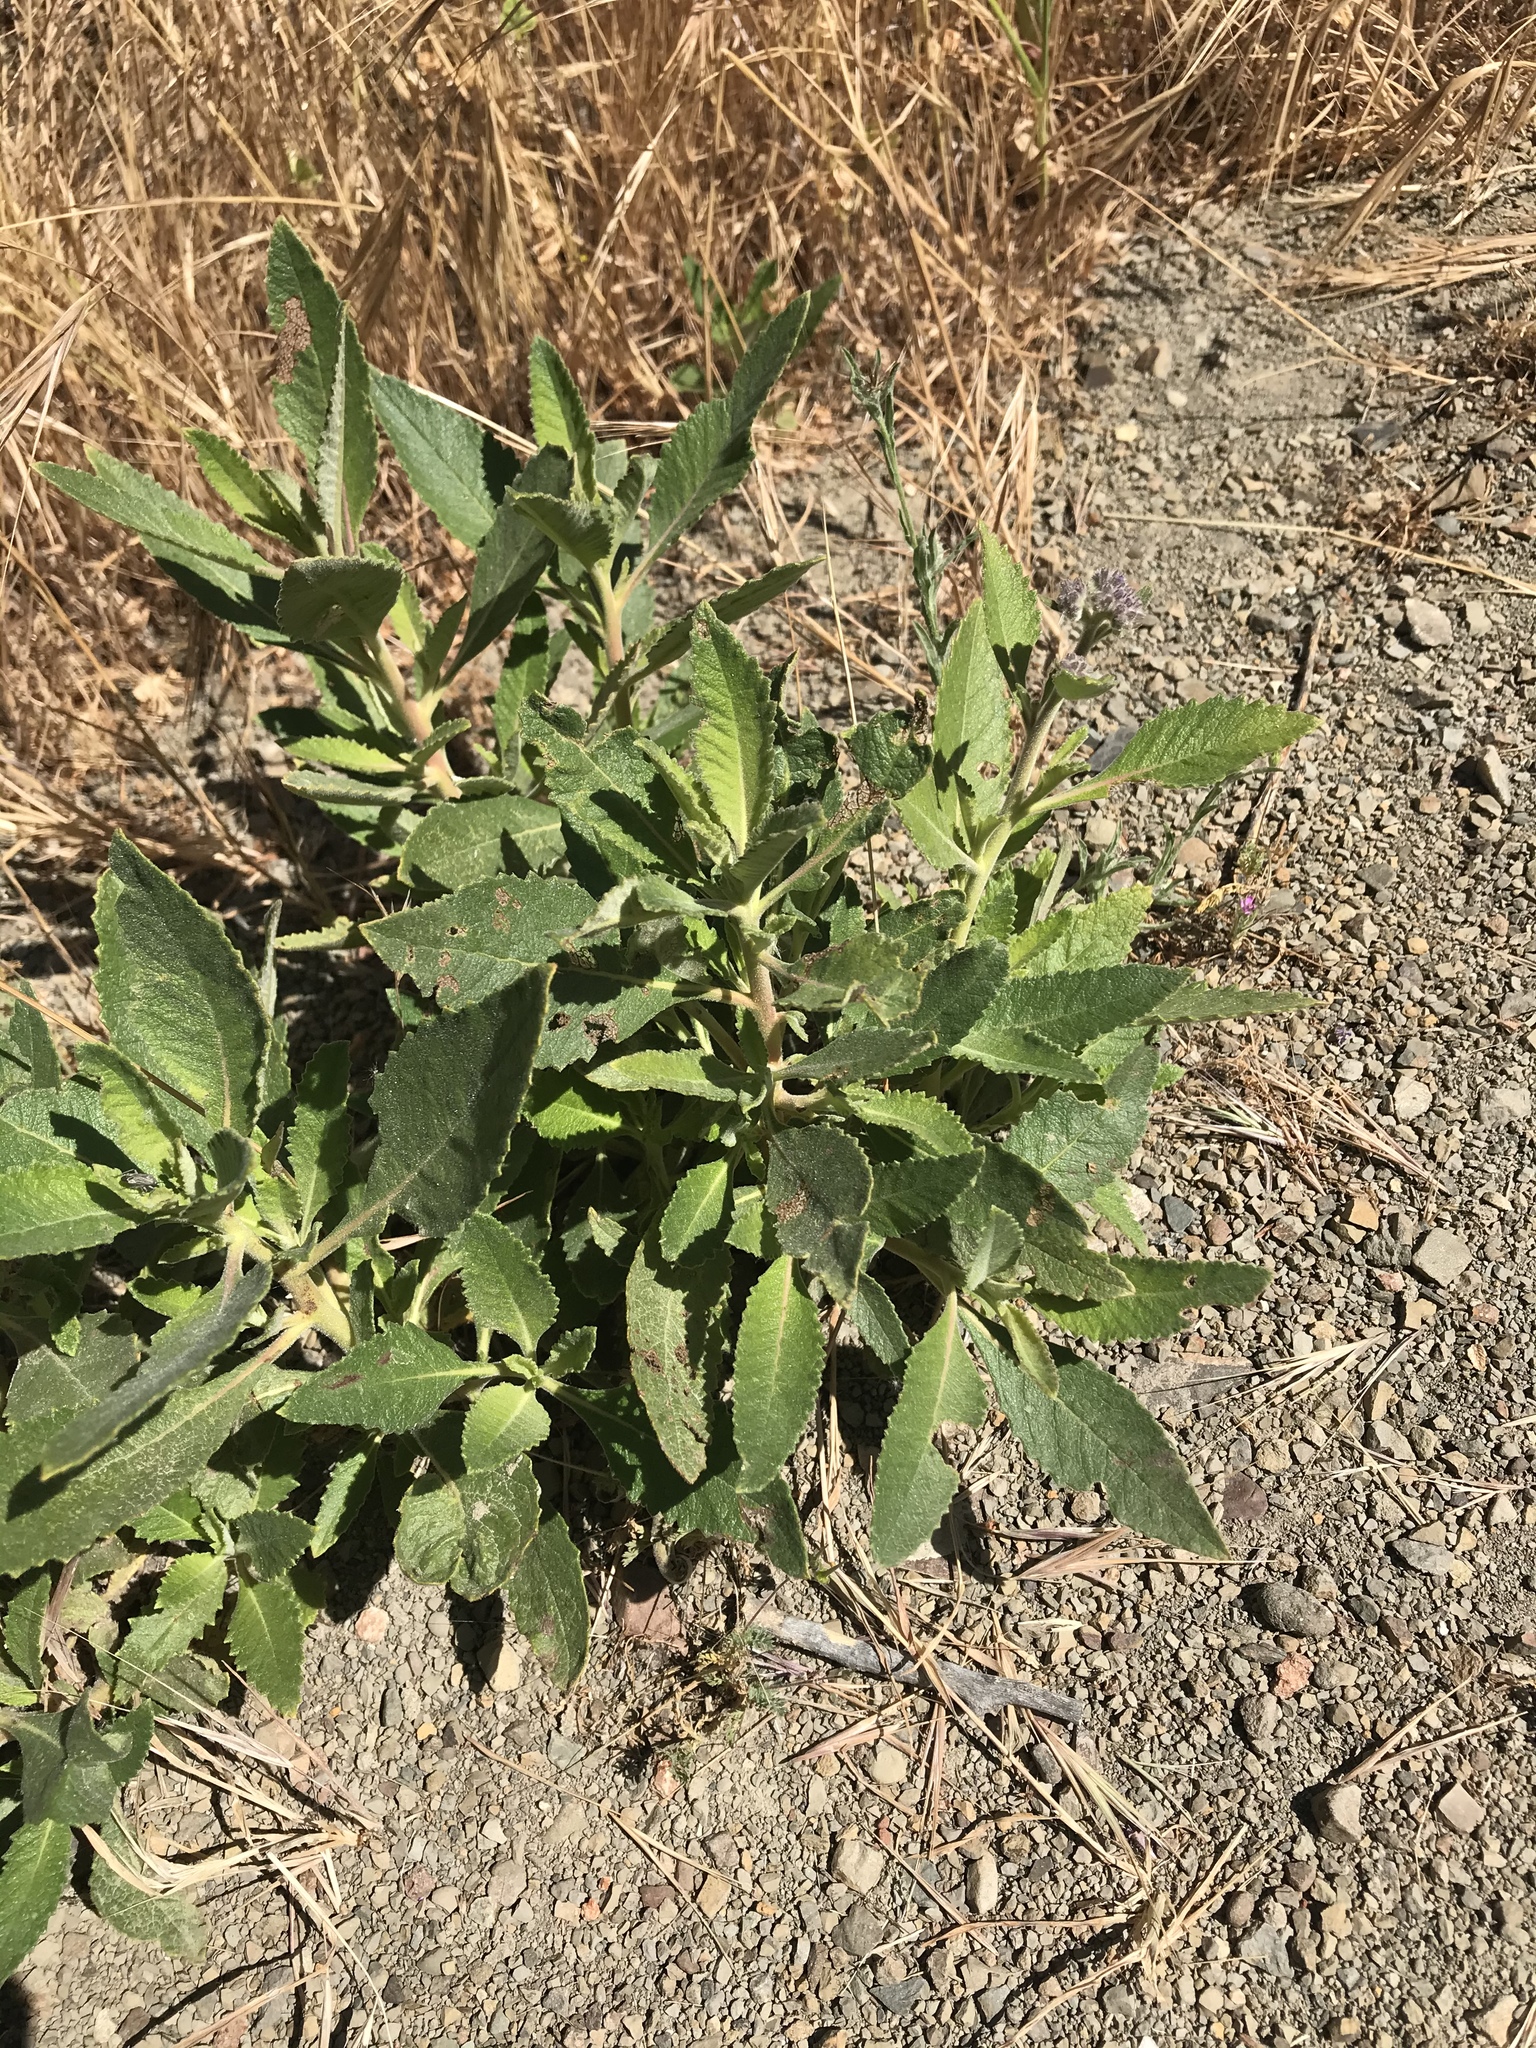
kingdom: Plantae
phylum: Tracheophyta
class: Magnoliopsida
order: Boraginales
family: Namaceae
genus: Eriodictyon
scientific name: Eriodictyon crassifolium
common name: Thick-leaf yerba-santa
